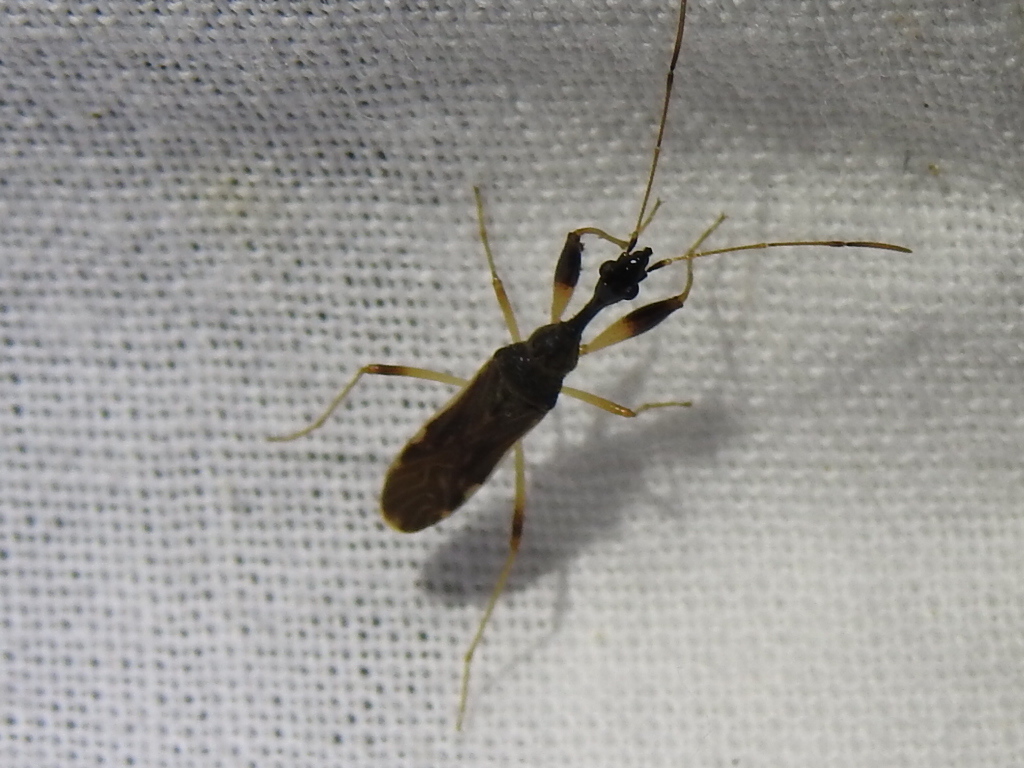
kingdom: Animalia
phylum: Arthropoda
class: Insecta
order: Hemiptera
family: Rhyparochromidae
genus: Myodocha
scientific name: Myodocha serripes
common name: Long-necked seed bug
